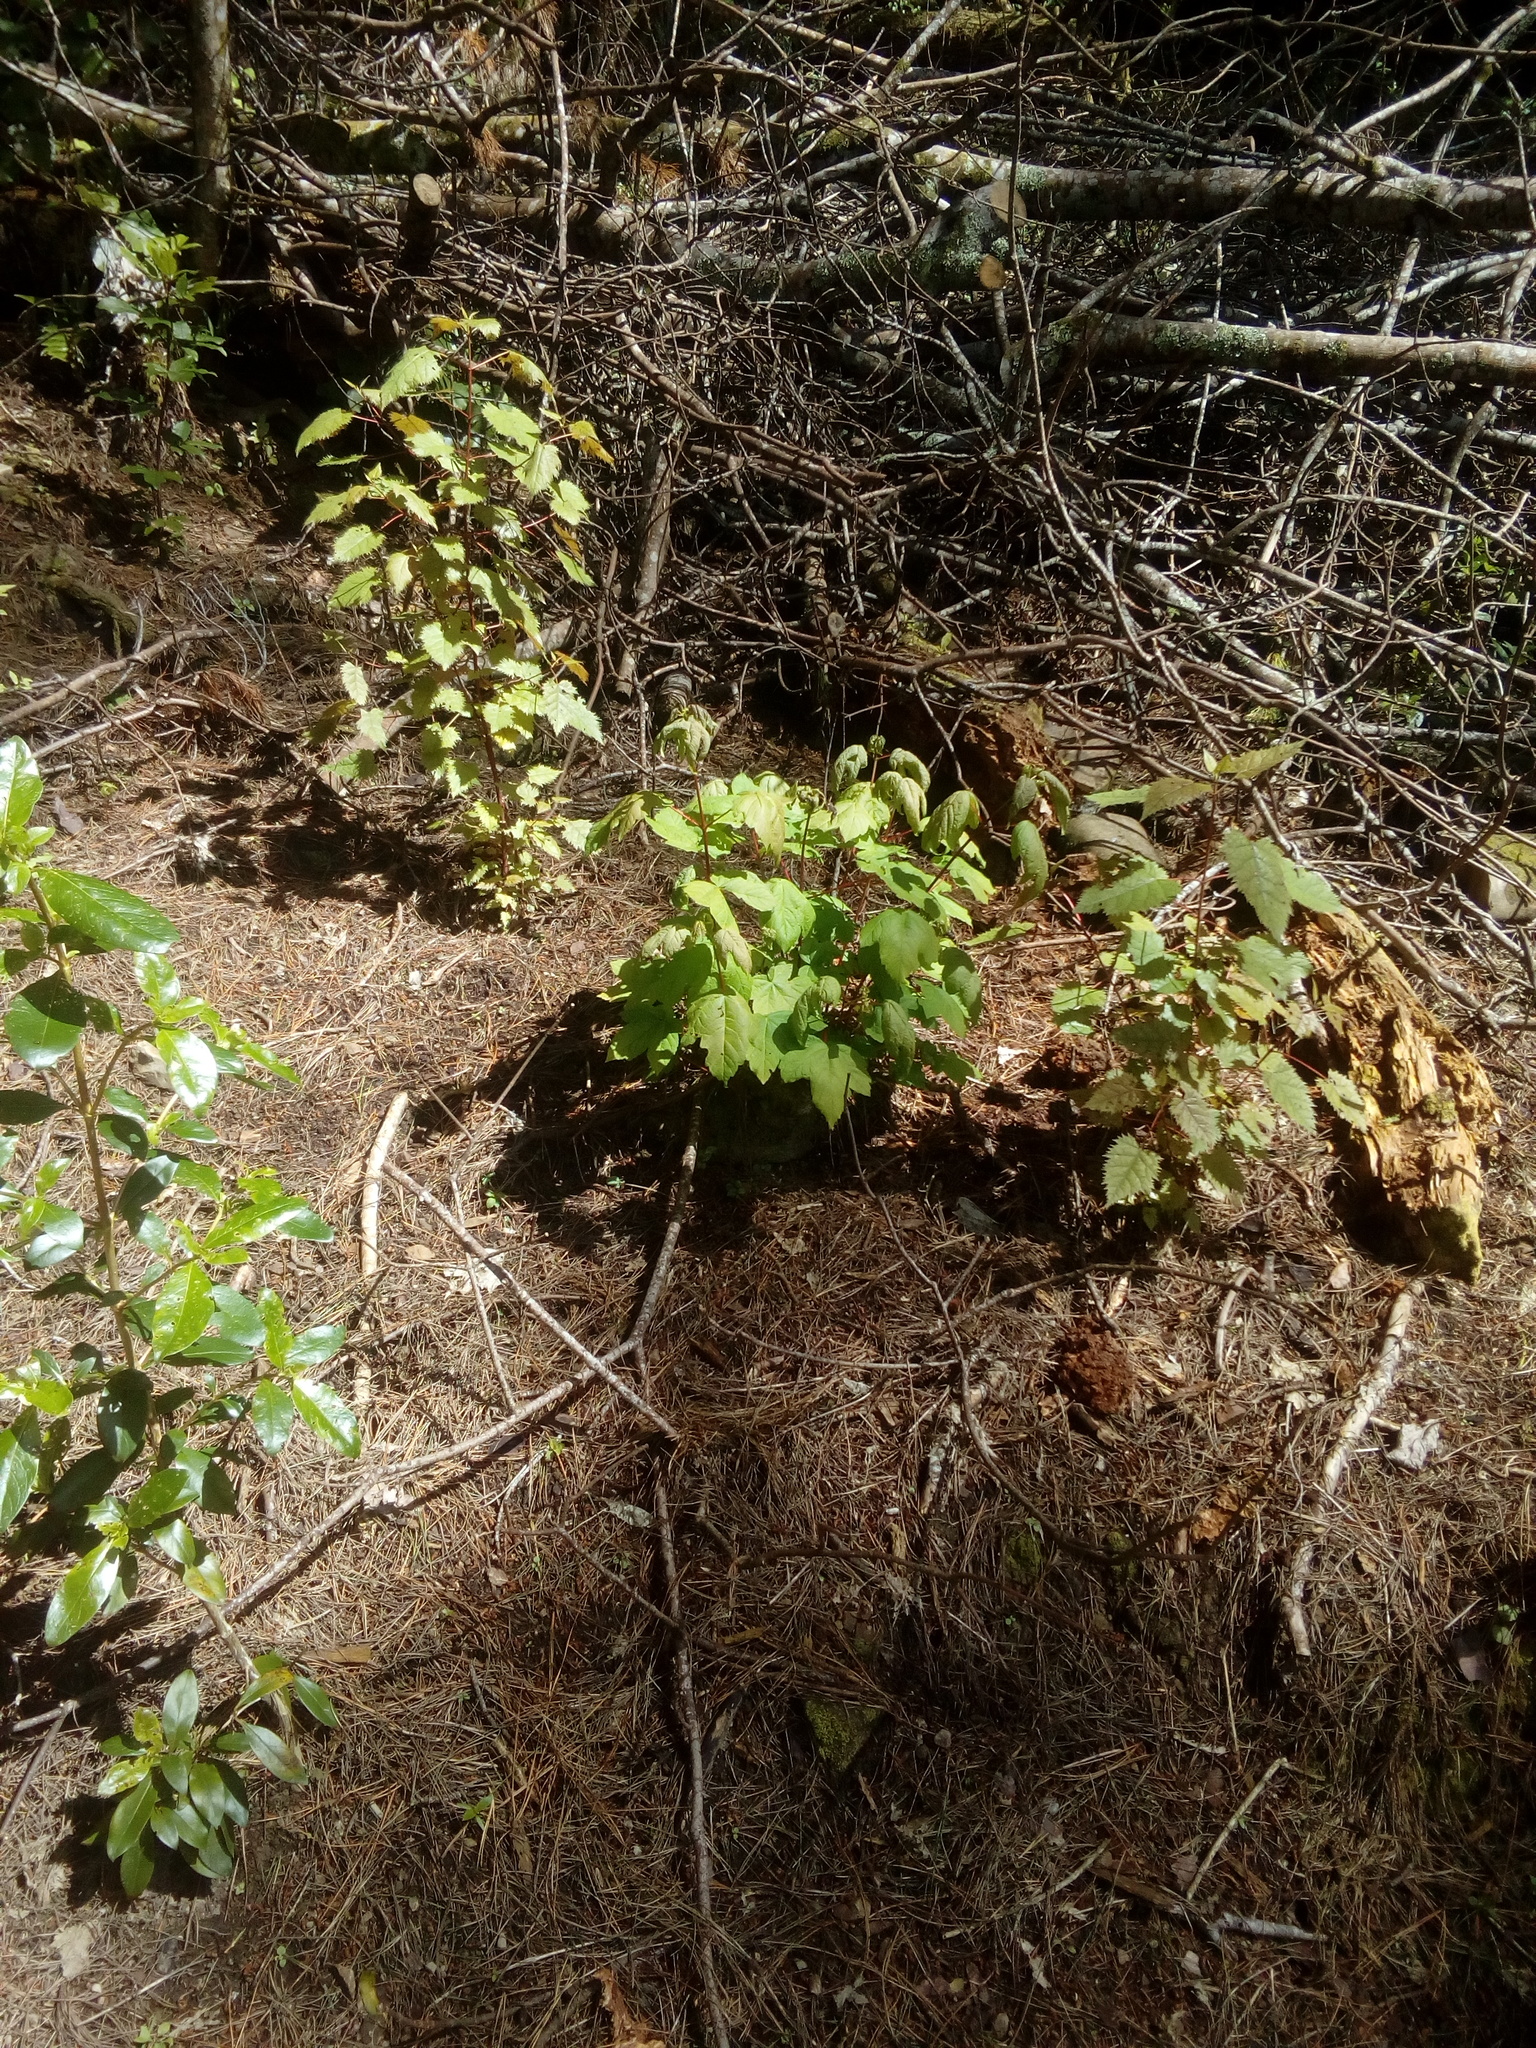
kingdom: Plantae
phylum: Tracheophyta
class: Magnoliopsida
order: Sapindales
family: Sapindaceae
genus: Acer
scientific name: Acer pseudoplatanus
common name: Sycamore
